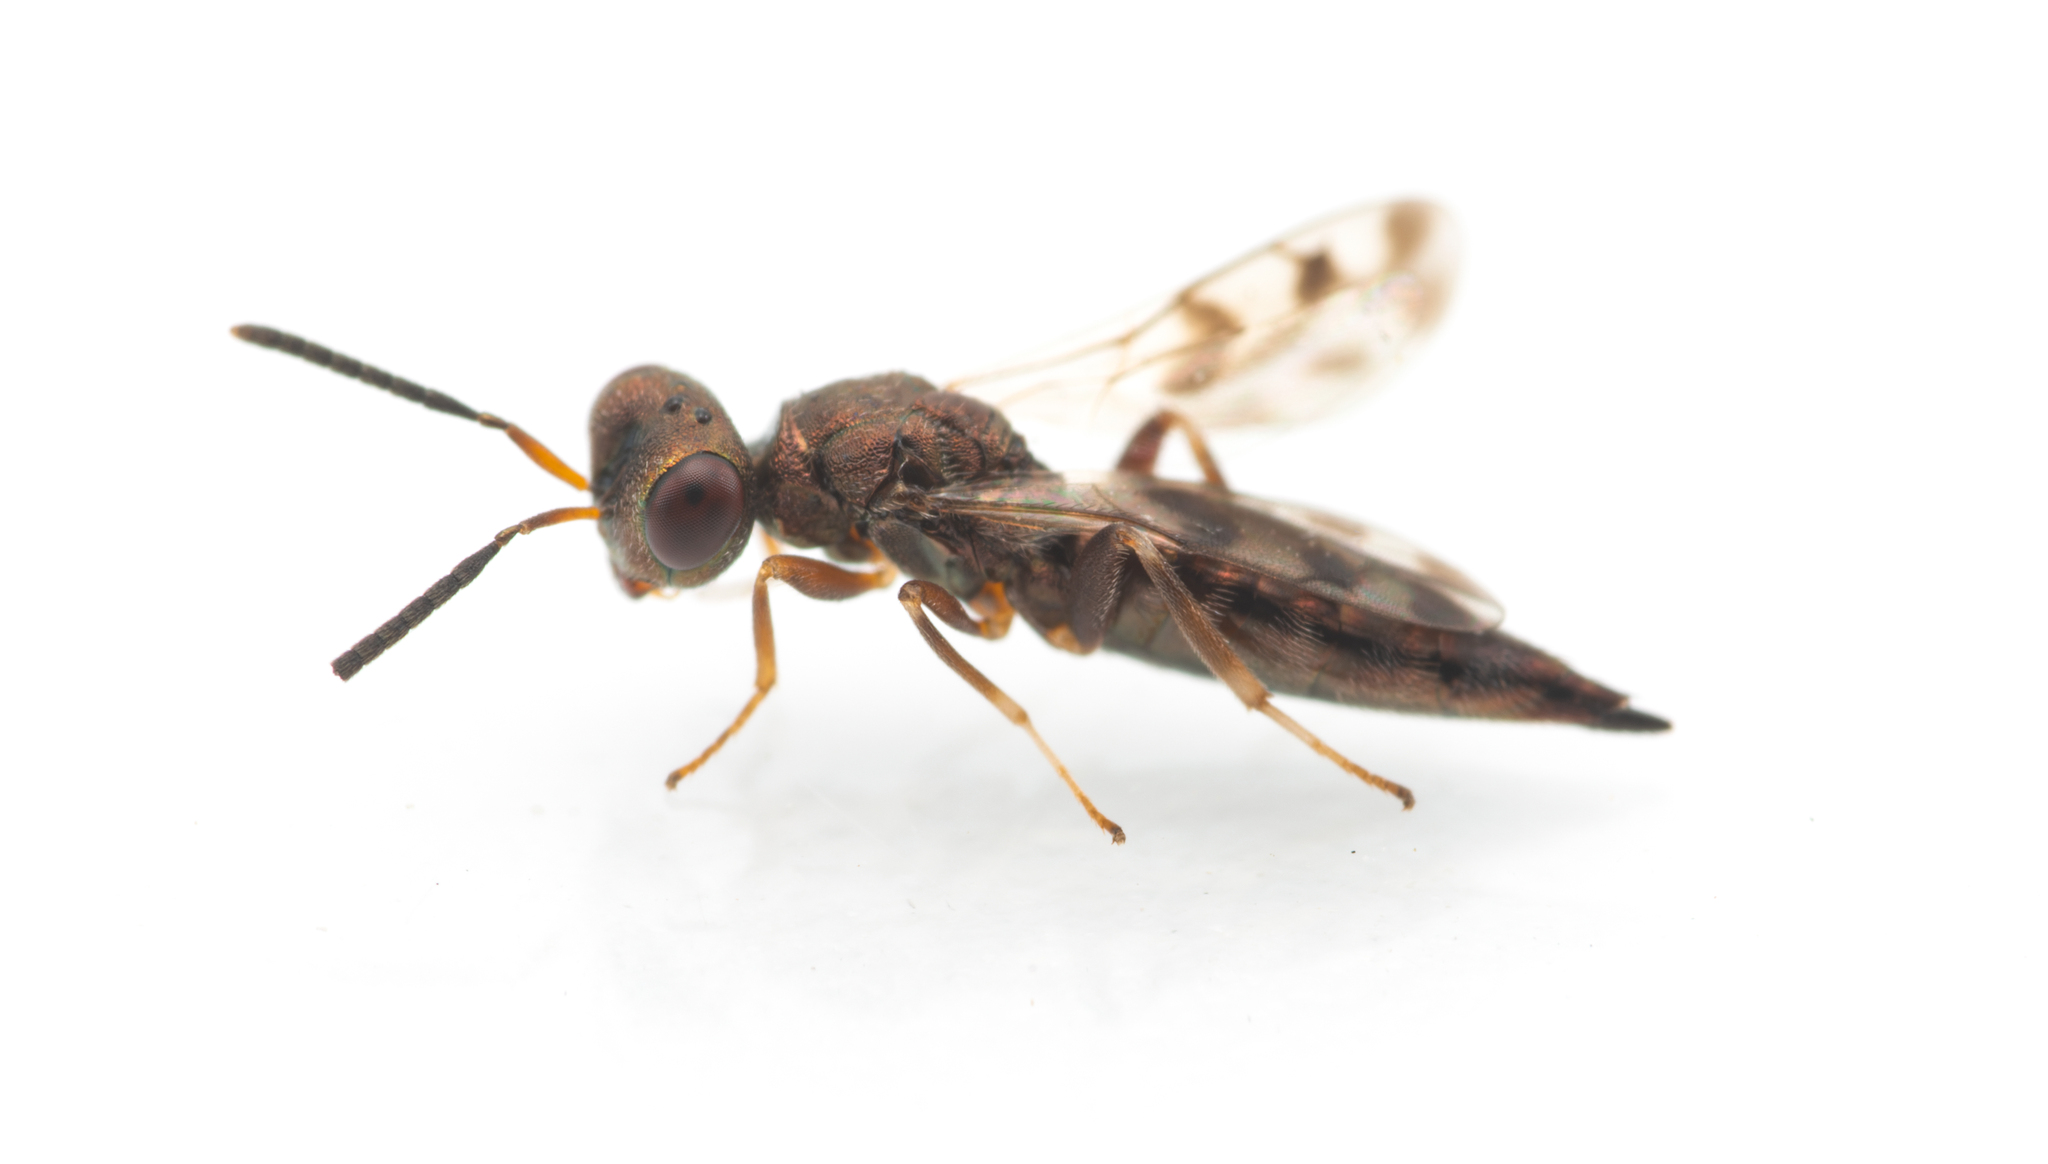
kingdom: Animalia
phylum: Arthropoda
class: Insecta
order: Hymenoptera
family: Pteromalidae
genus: Plutothrix
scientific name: Plutothrix trifasciata
